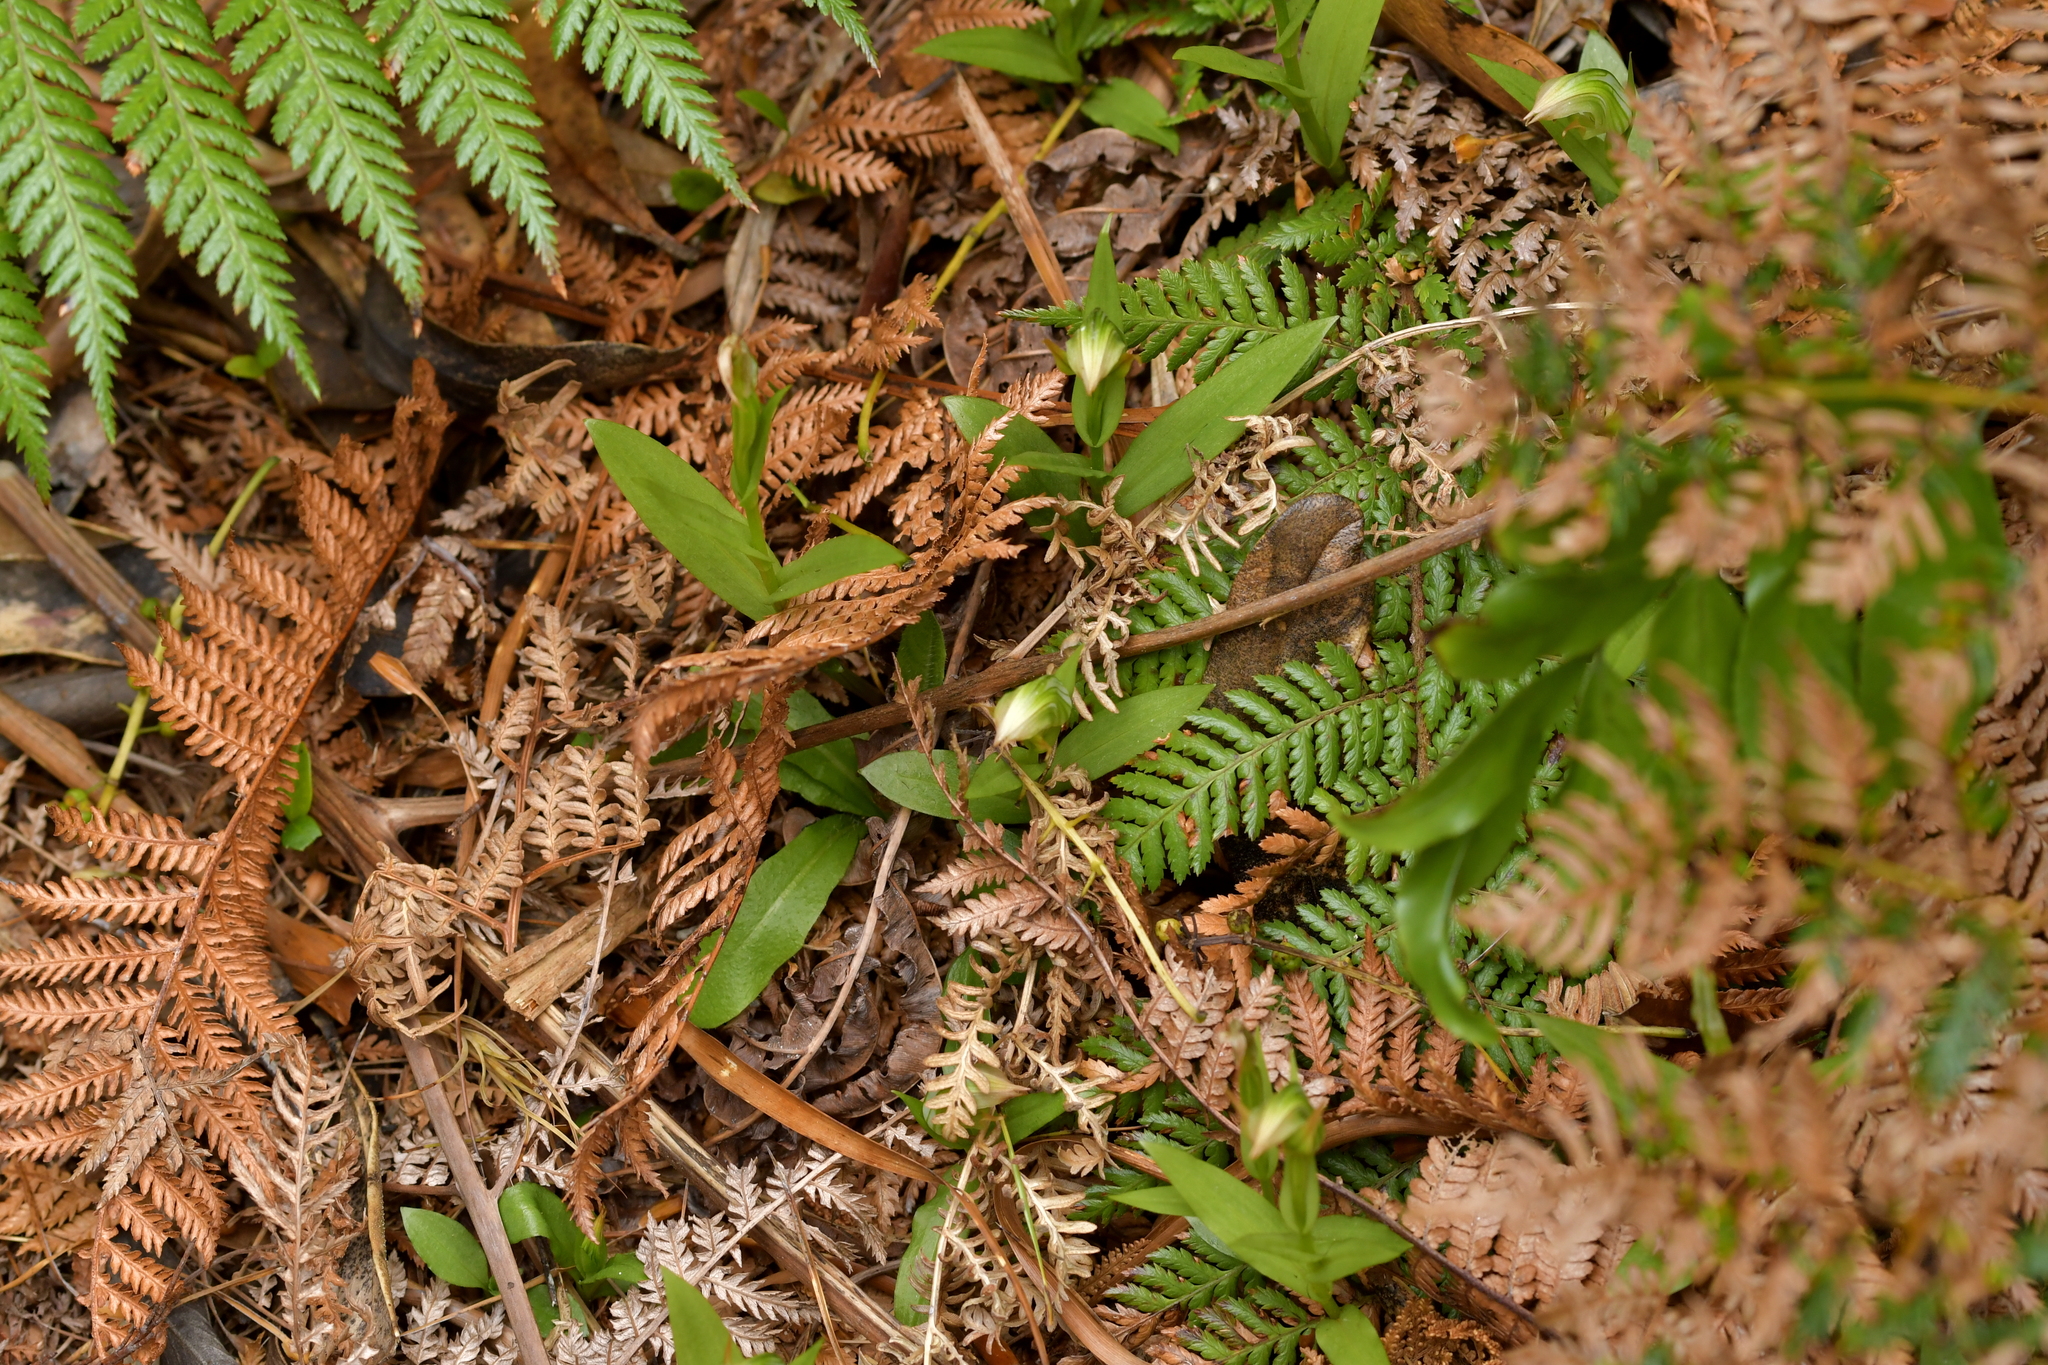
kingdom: Plantae
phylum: Tracheophyta
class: Liliopsida
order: Asparagales
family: Orchidaceae
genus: Pterostylis
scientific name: Pterostylis silvicultrix
